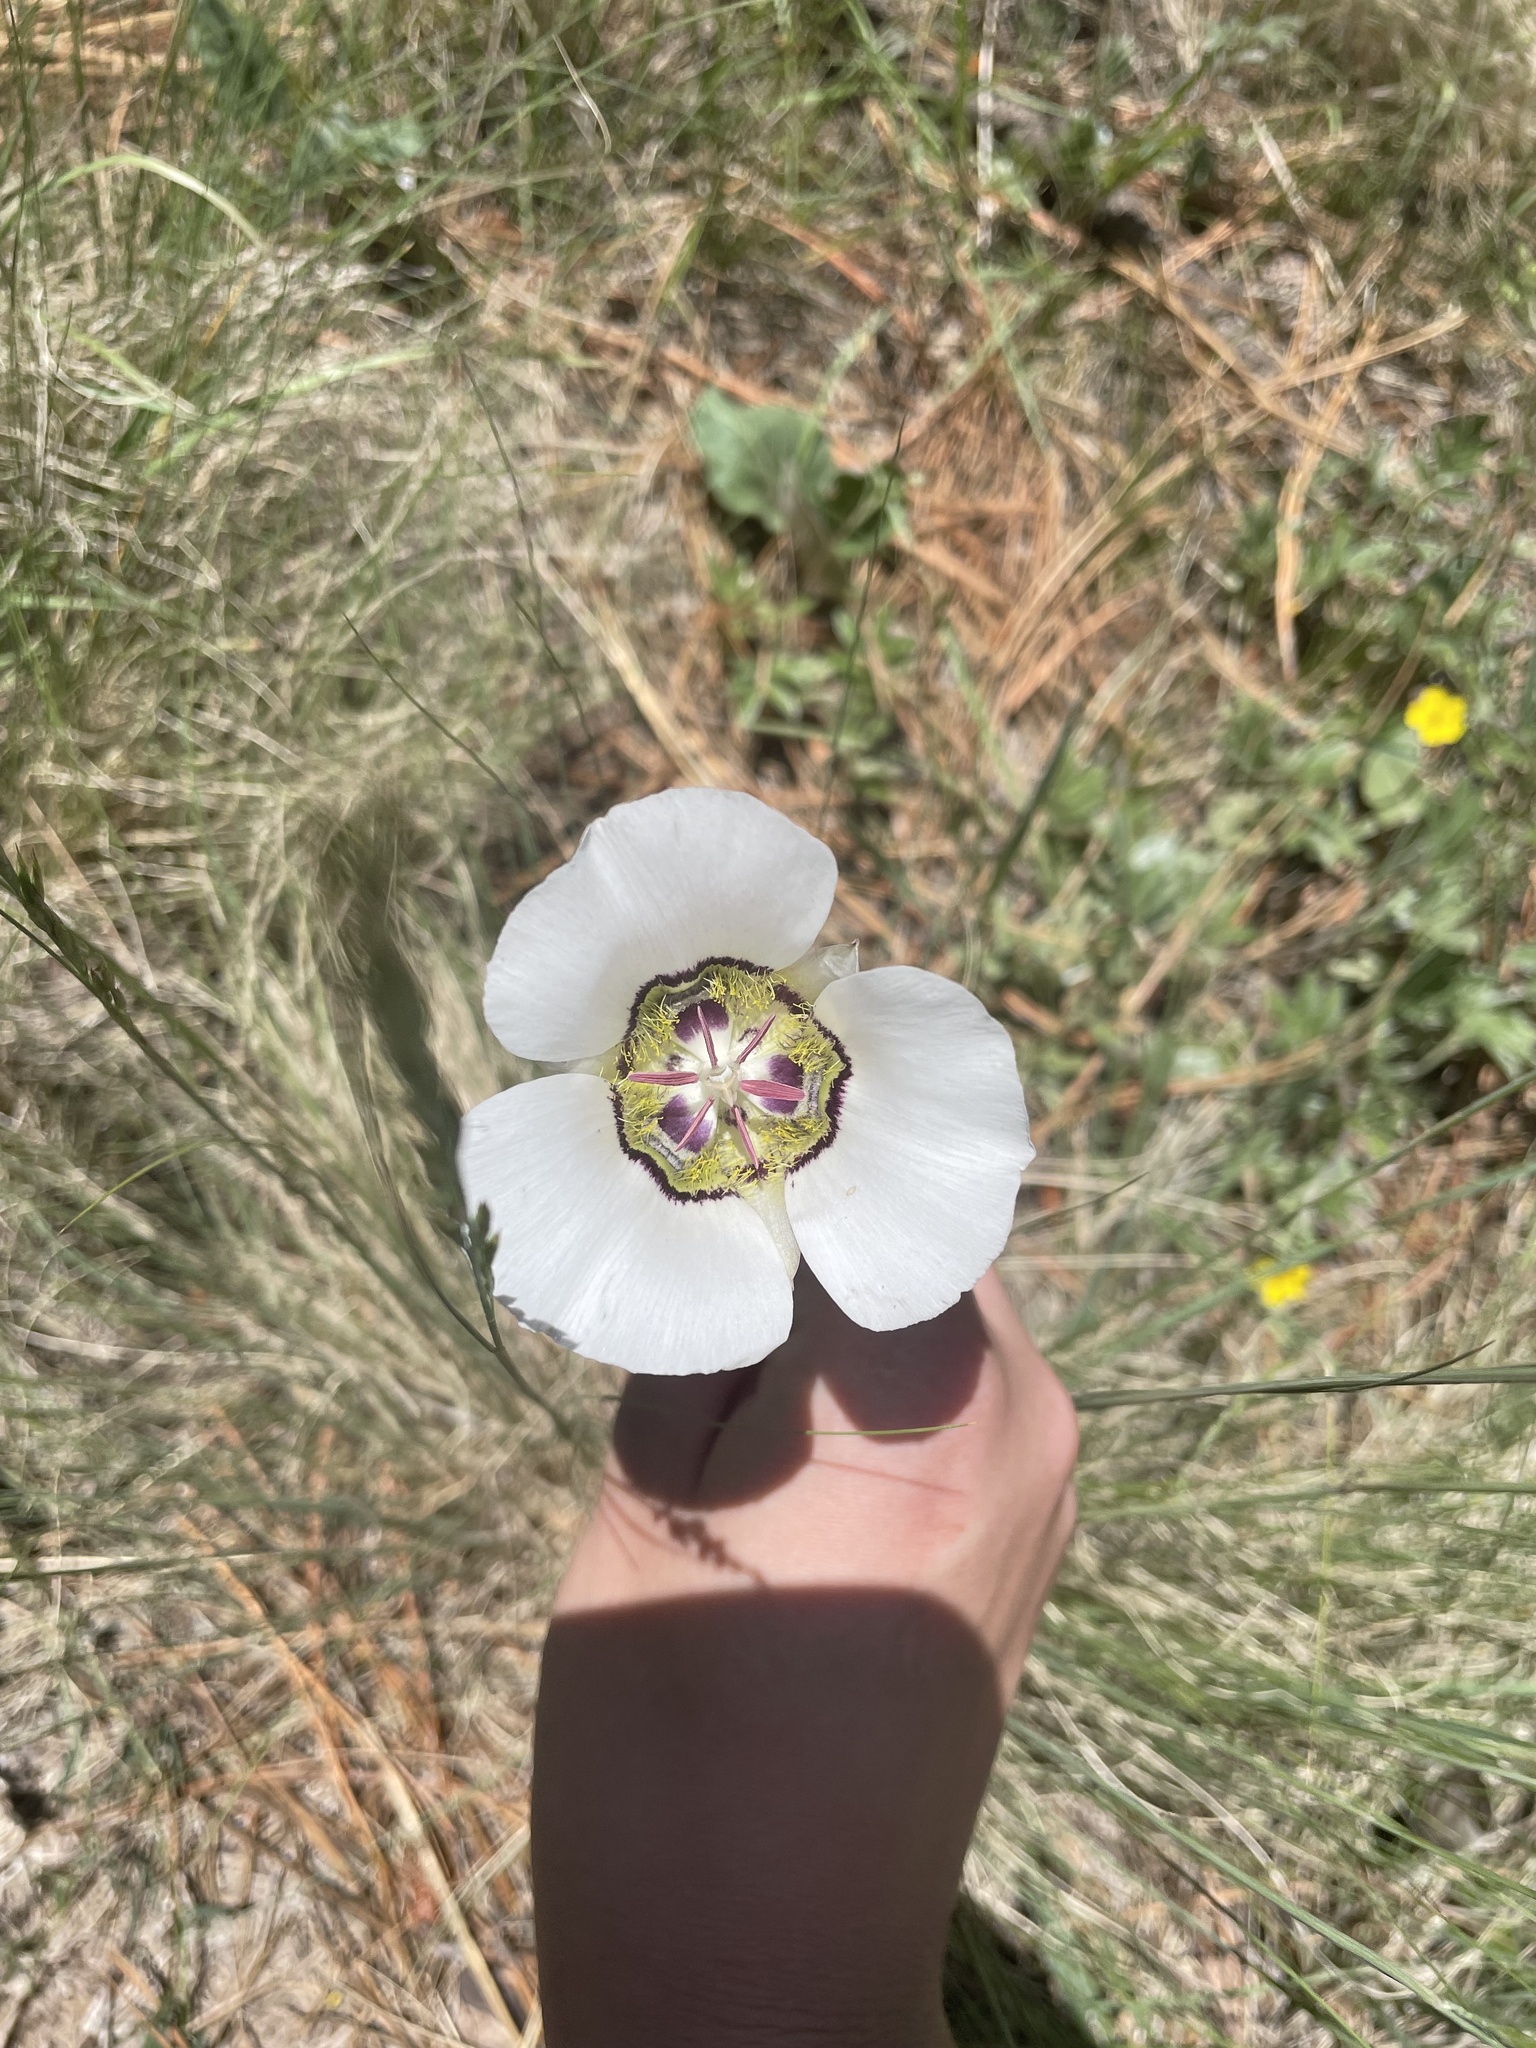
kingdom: Plantae
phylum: Tracheophyta
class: Liliopsida
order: Liliales
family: Liliaceae
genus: Calochortus
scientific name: Calochortus ambiguus
